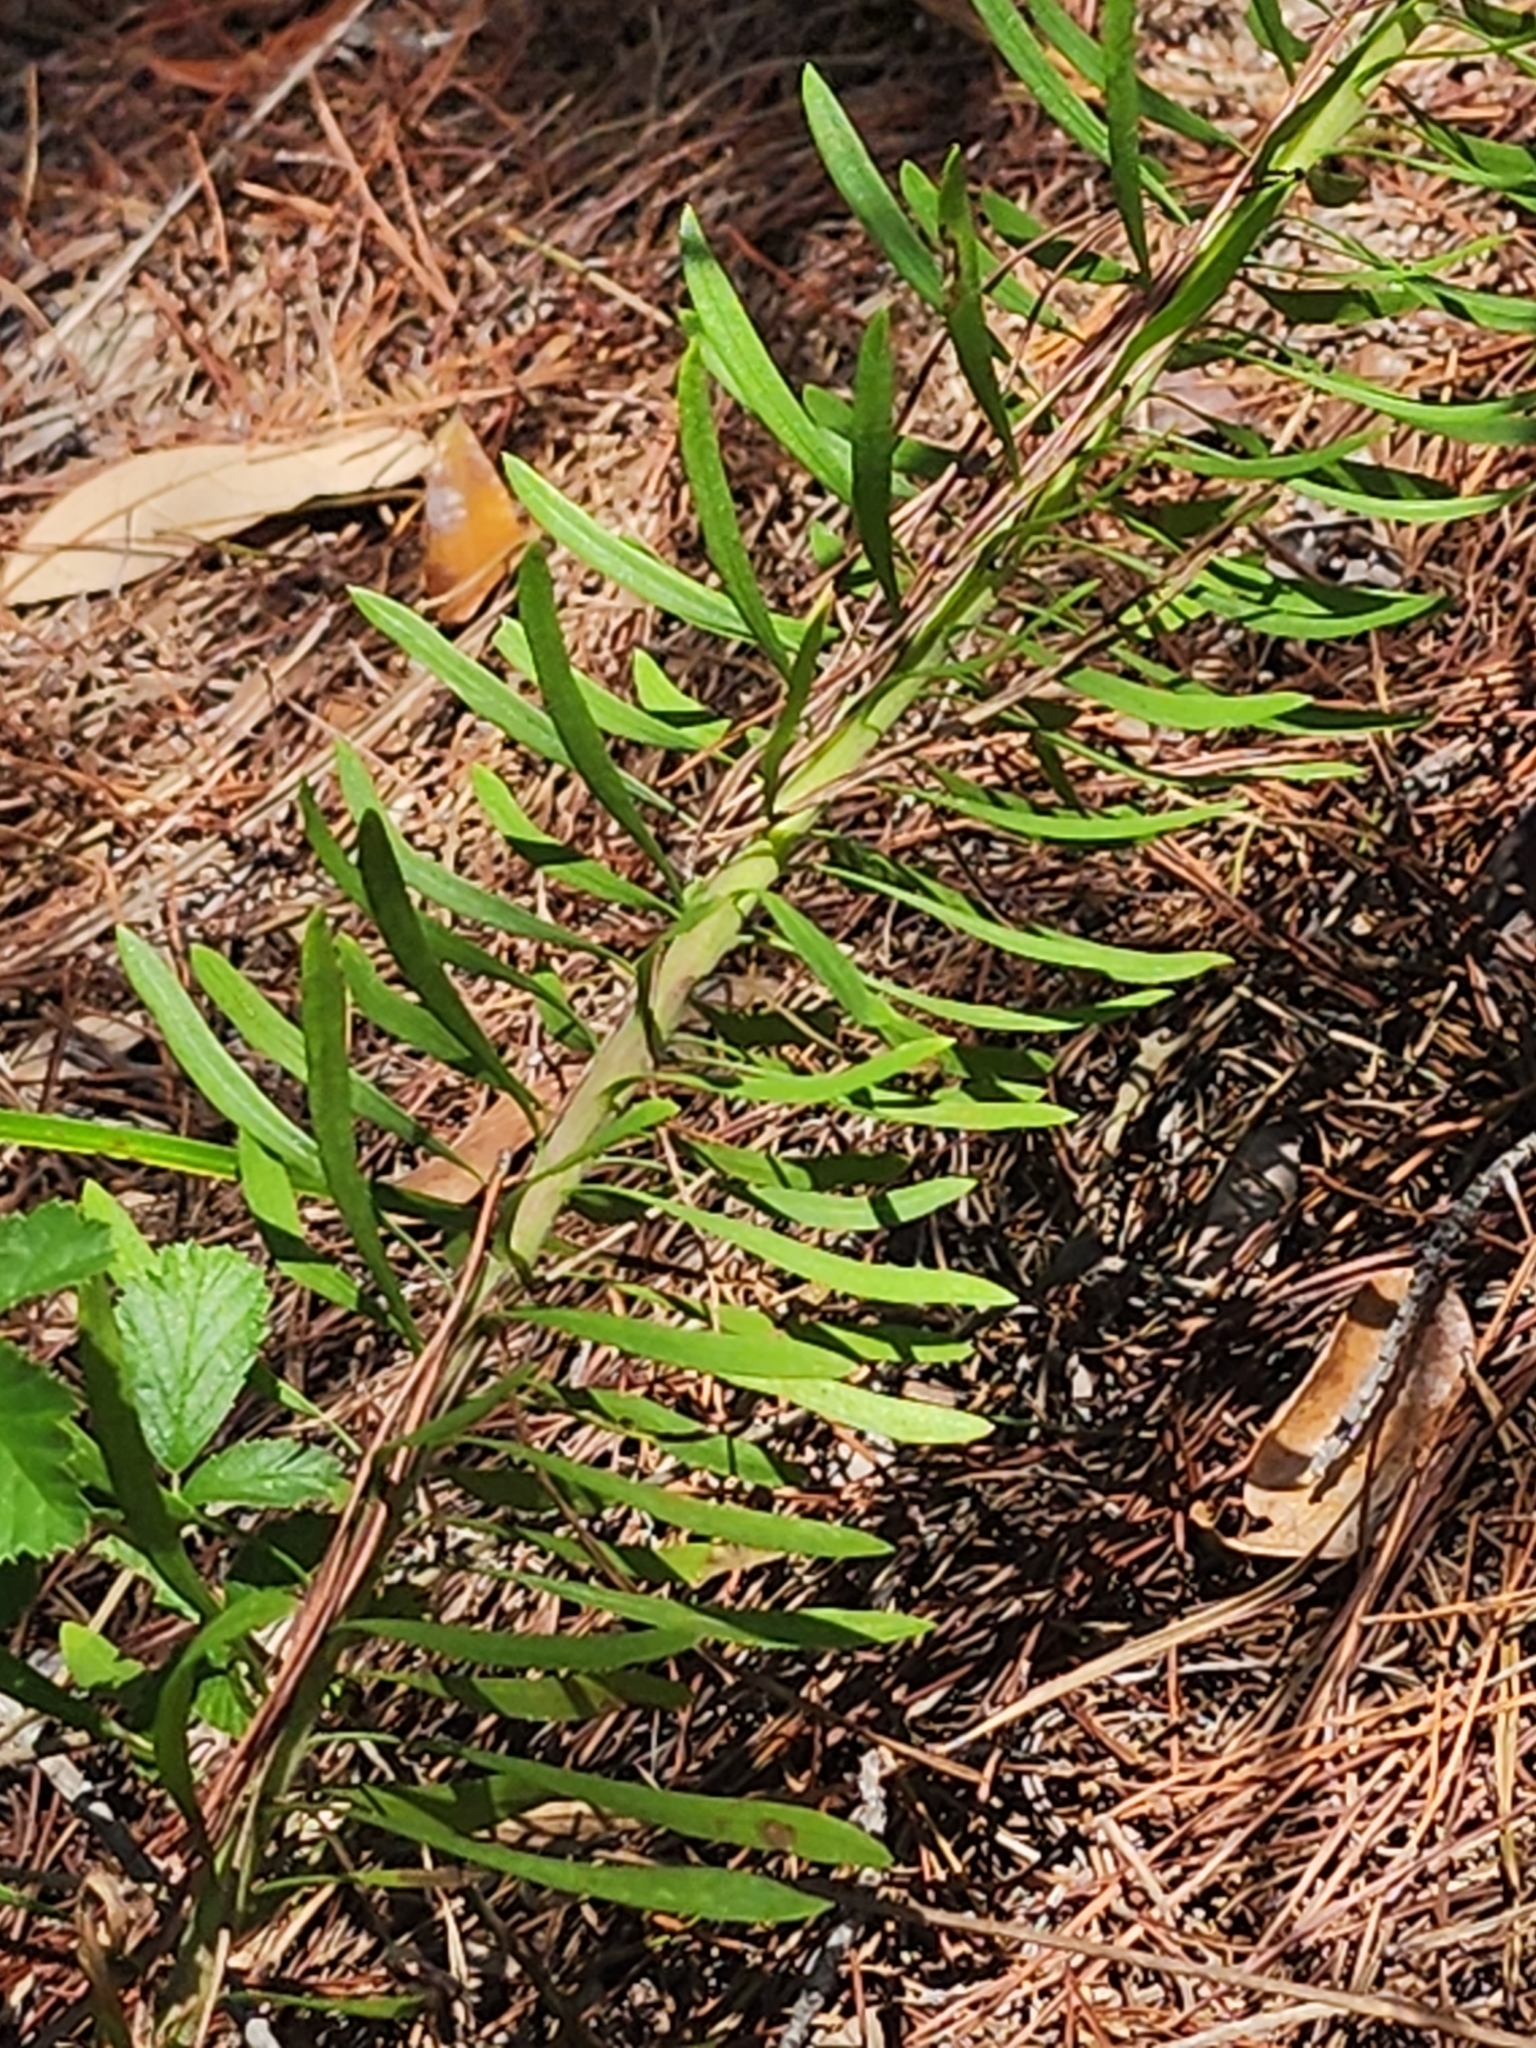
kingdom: Plantae
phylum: Tracheophyta
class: Magnoliopsida
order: Asterales
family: Asteraceae
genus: Liatris
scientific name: Liatris provincialis
